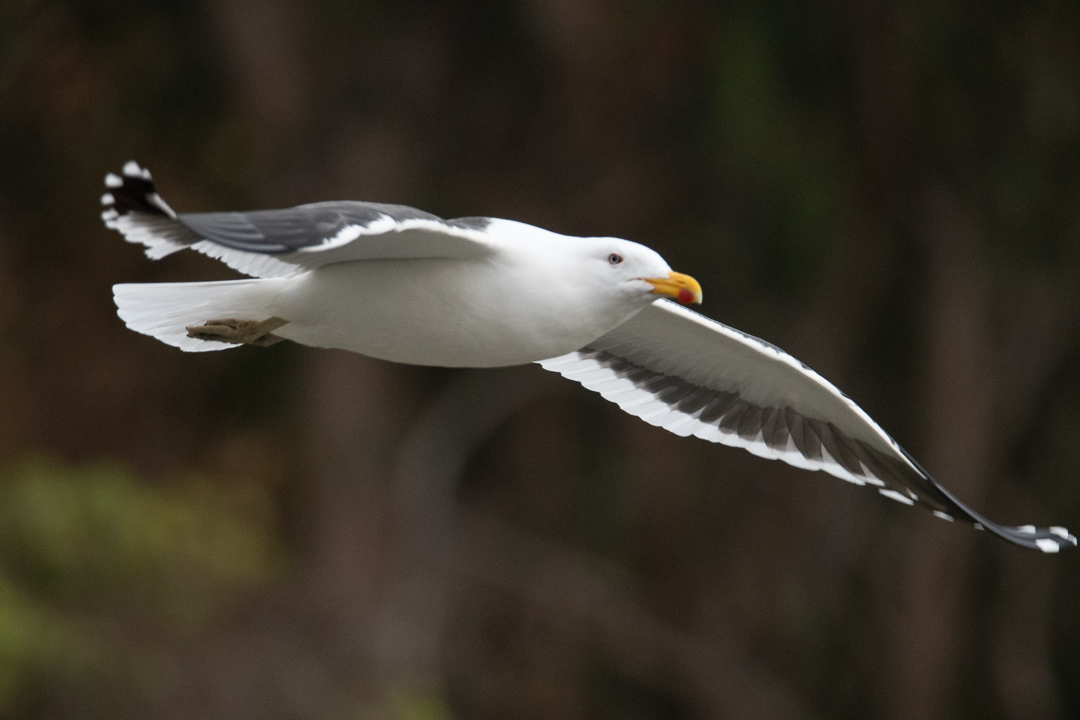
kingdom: Animalia
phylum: Chordata
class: Aves
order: Charadriiformes
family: Laridae
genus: Larus
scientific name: Larus dominicanus
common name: Kelp gull
